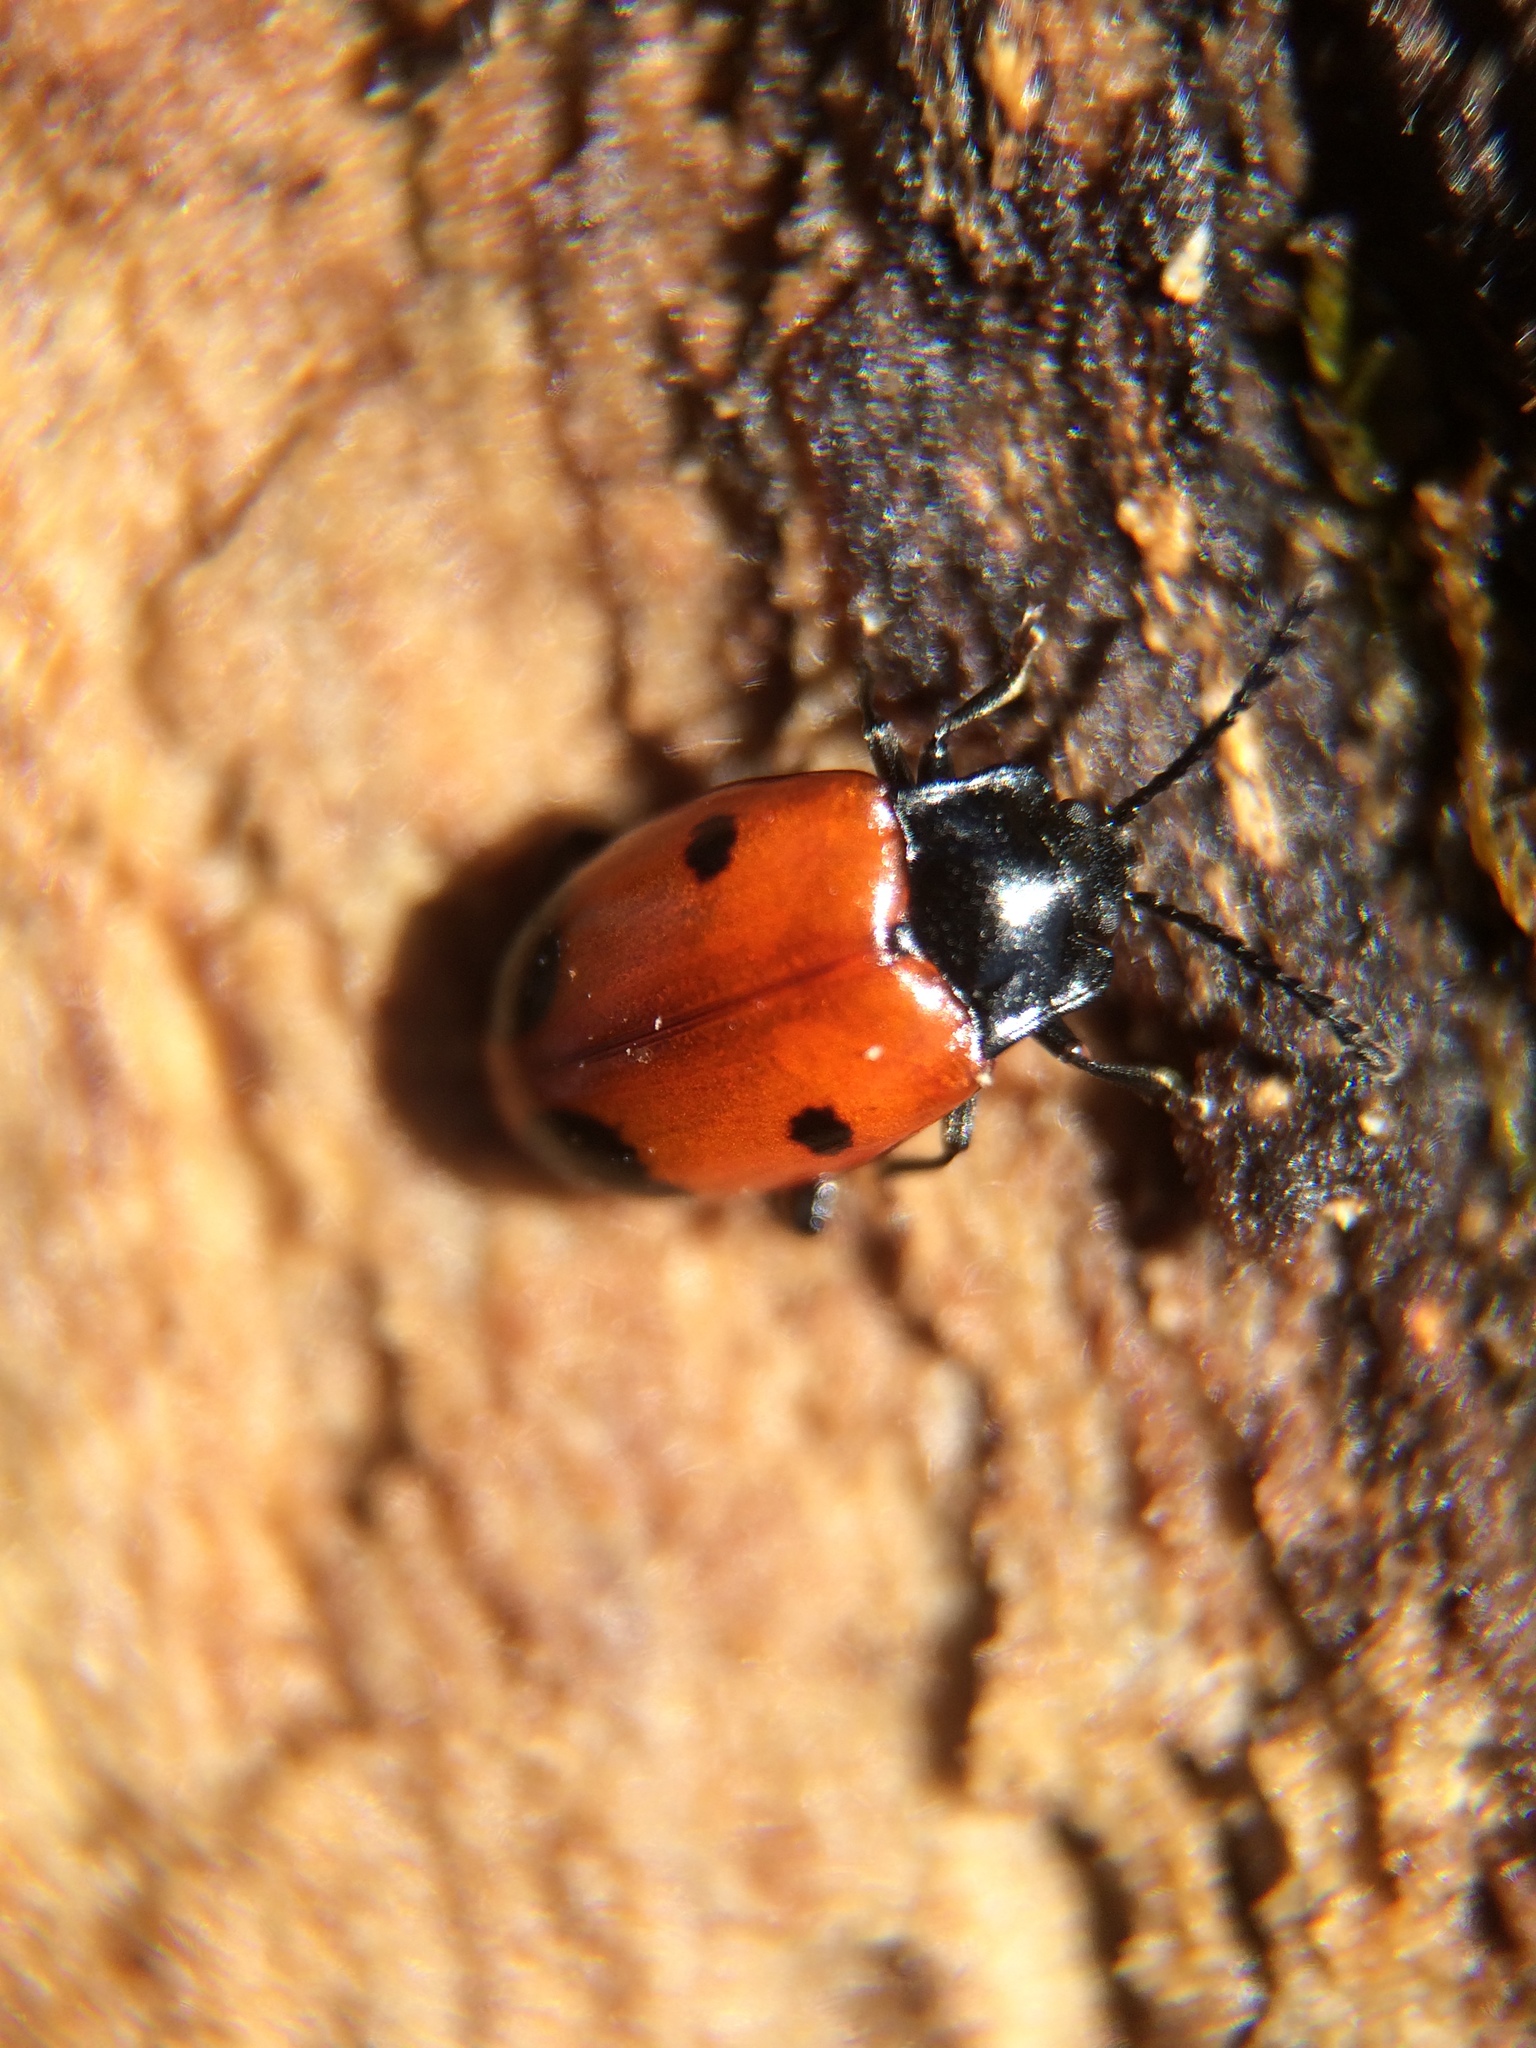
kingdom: Animalia
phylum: Arthropoda
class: Insecta
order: Coleoptera
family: Endomychidae
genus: Endomychus
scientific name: Endomychus biguttatus
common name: Handsome fungus beetle
